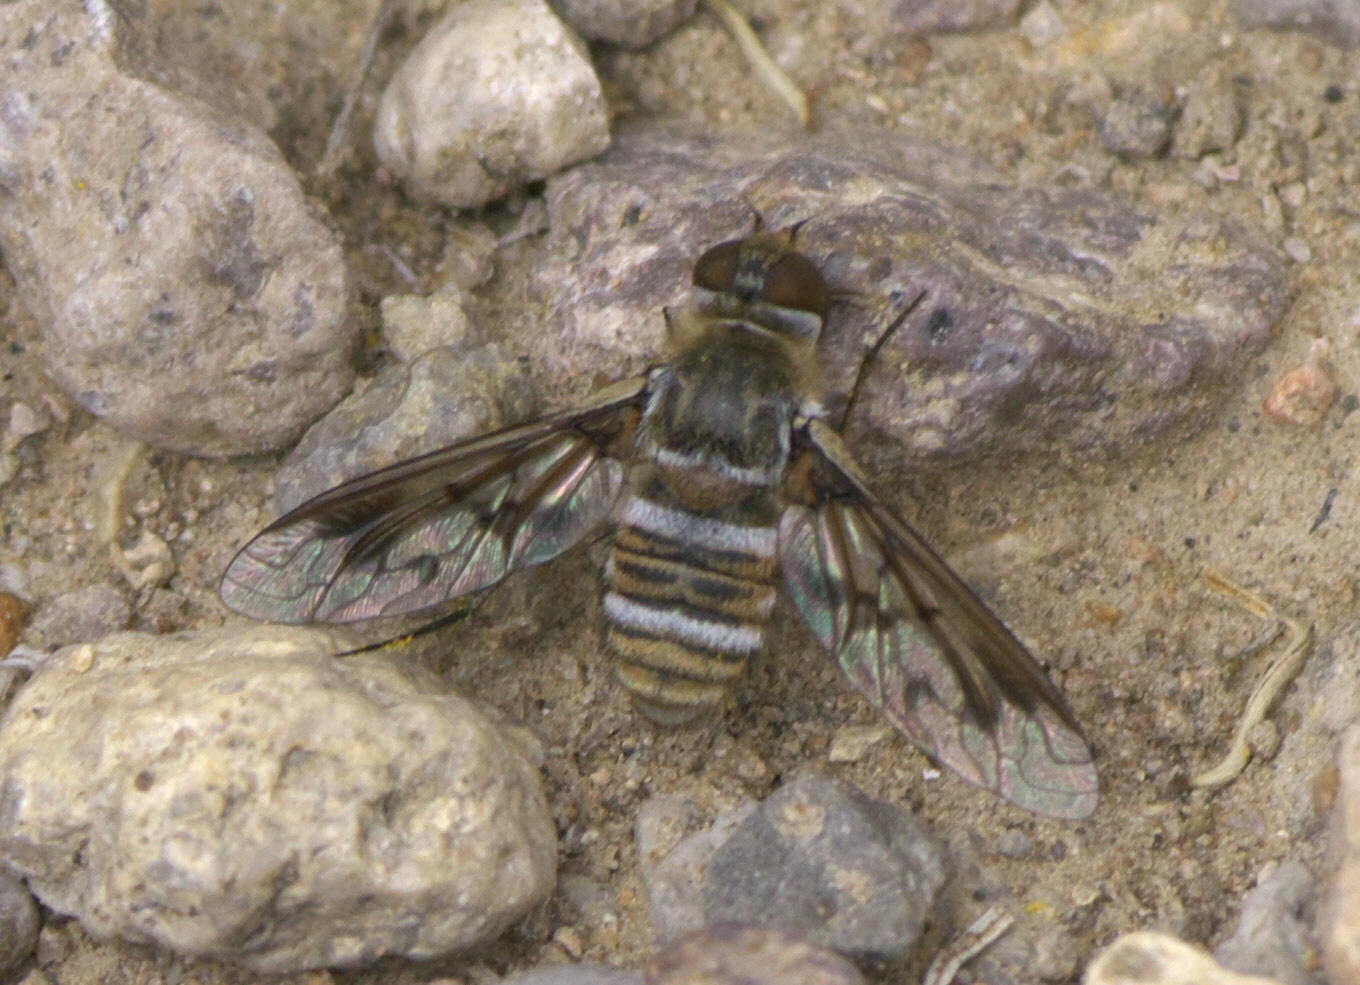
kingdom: Animalia
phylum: Arthropoda
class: Insecta
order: Diptera
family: Bombyliidae
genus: Exoprosopa
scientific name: Exoprosopa doris
